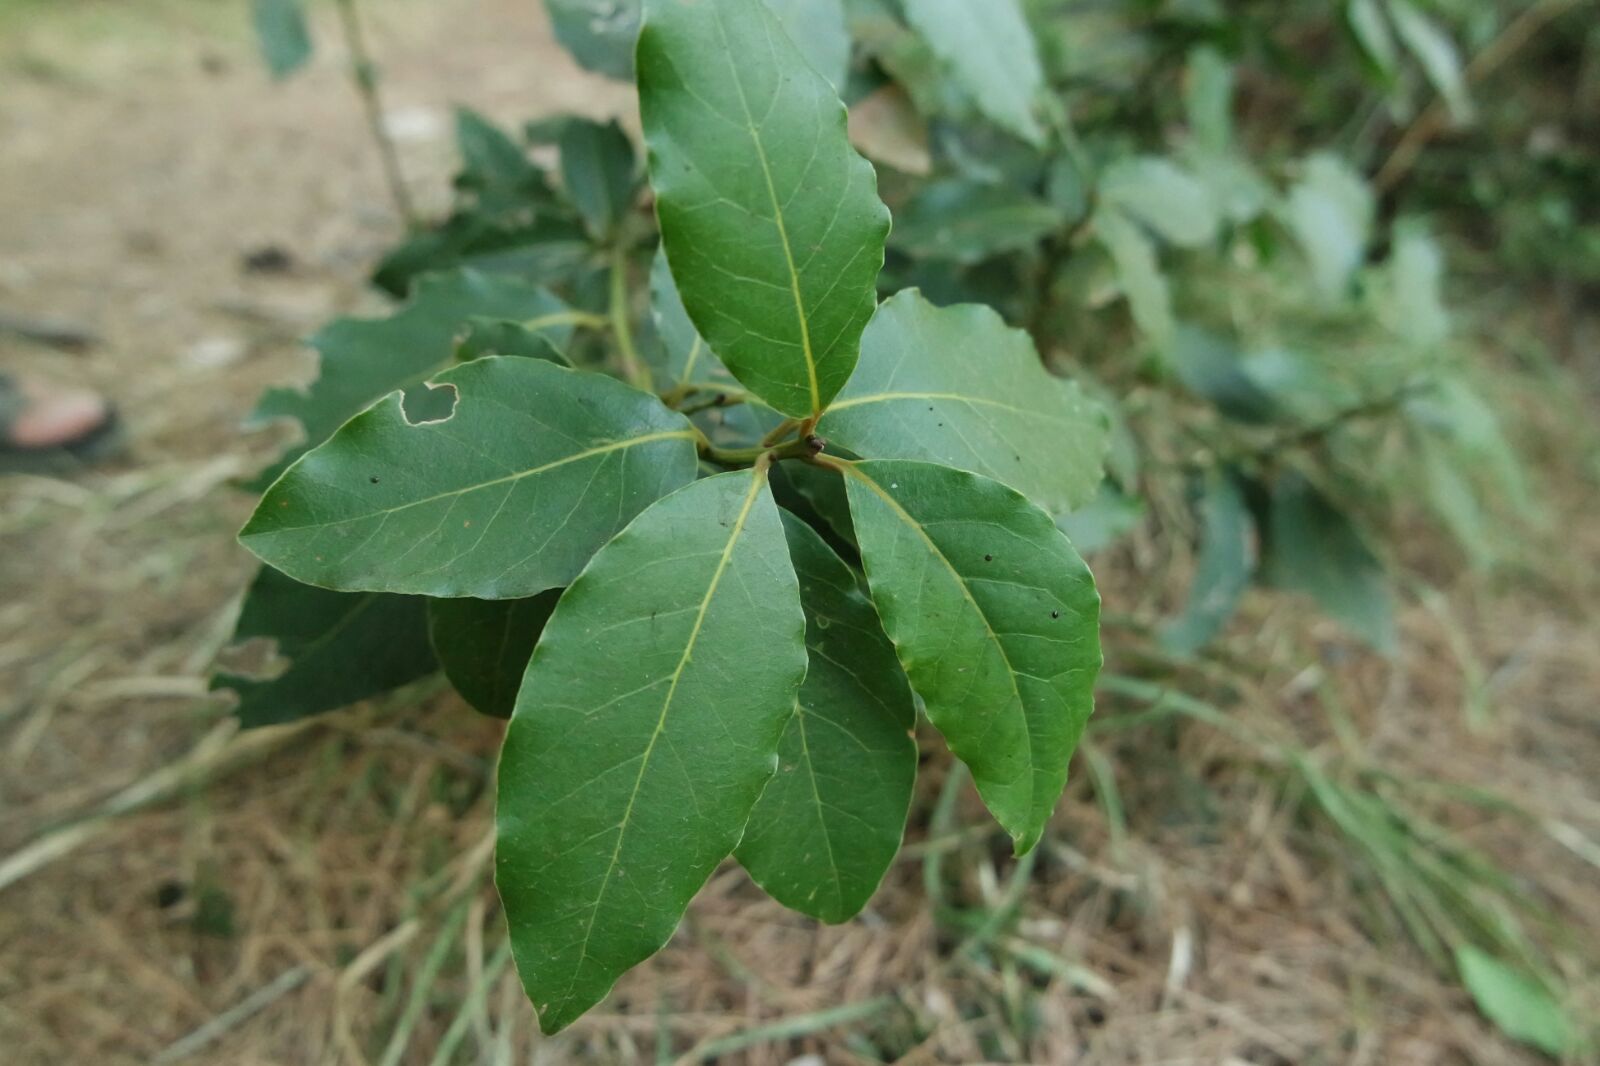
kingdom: Plantae
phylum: Tracheophyta
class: Magnoliopsida
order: Laurales
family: Lauraceae
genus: Laurus
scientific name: Laurus nobilis
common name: Bay
